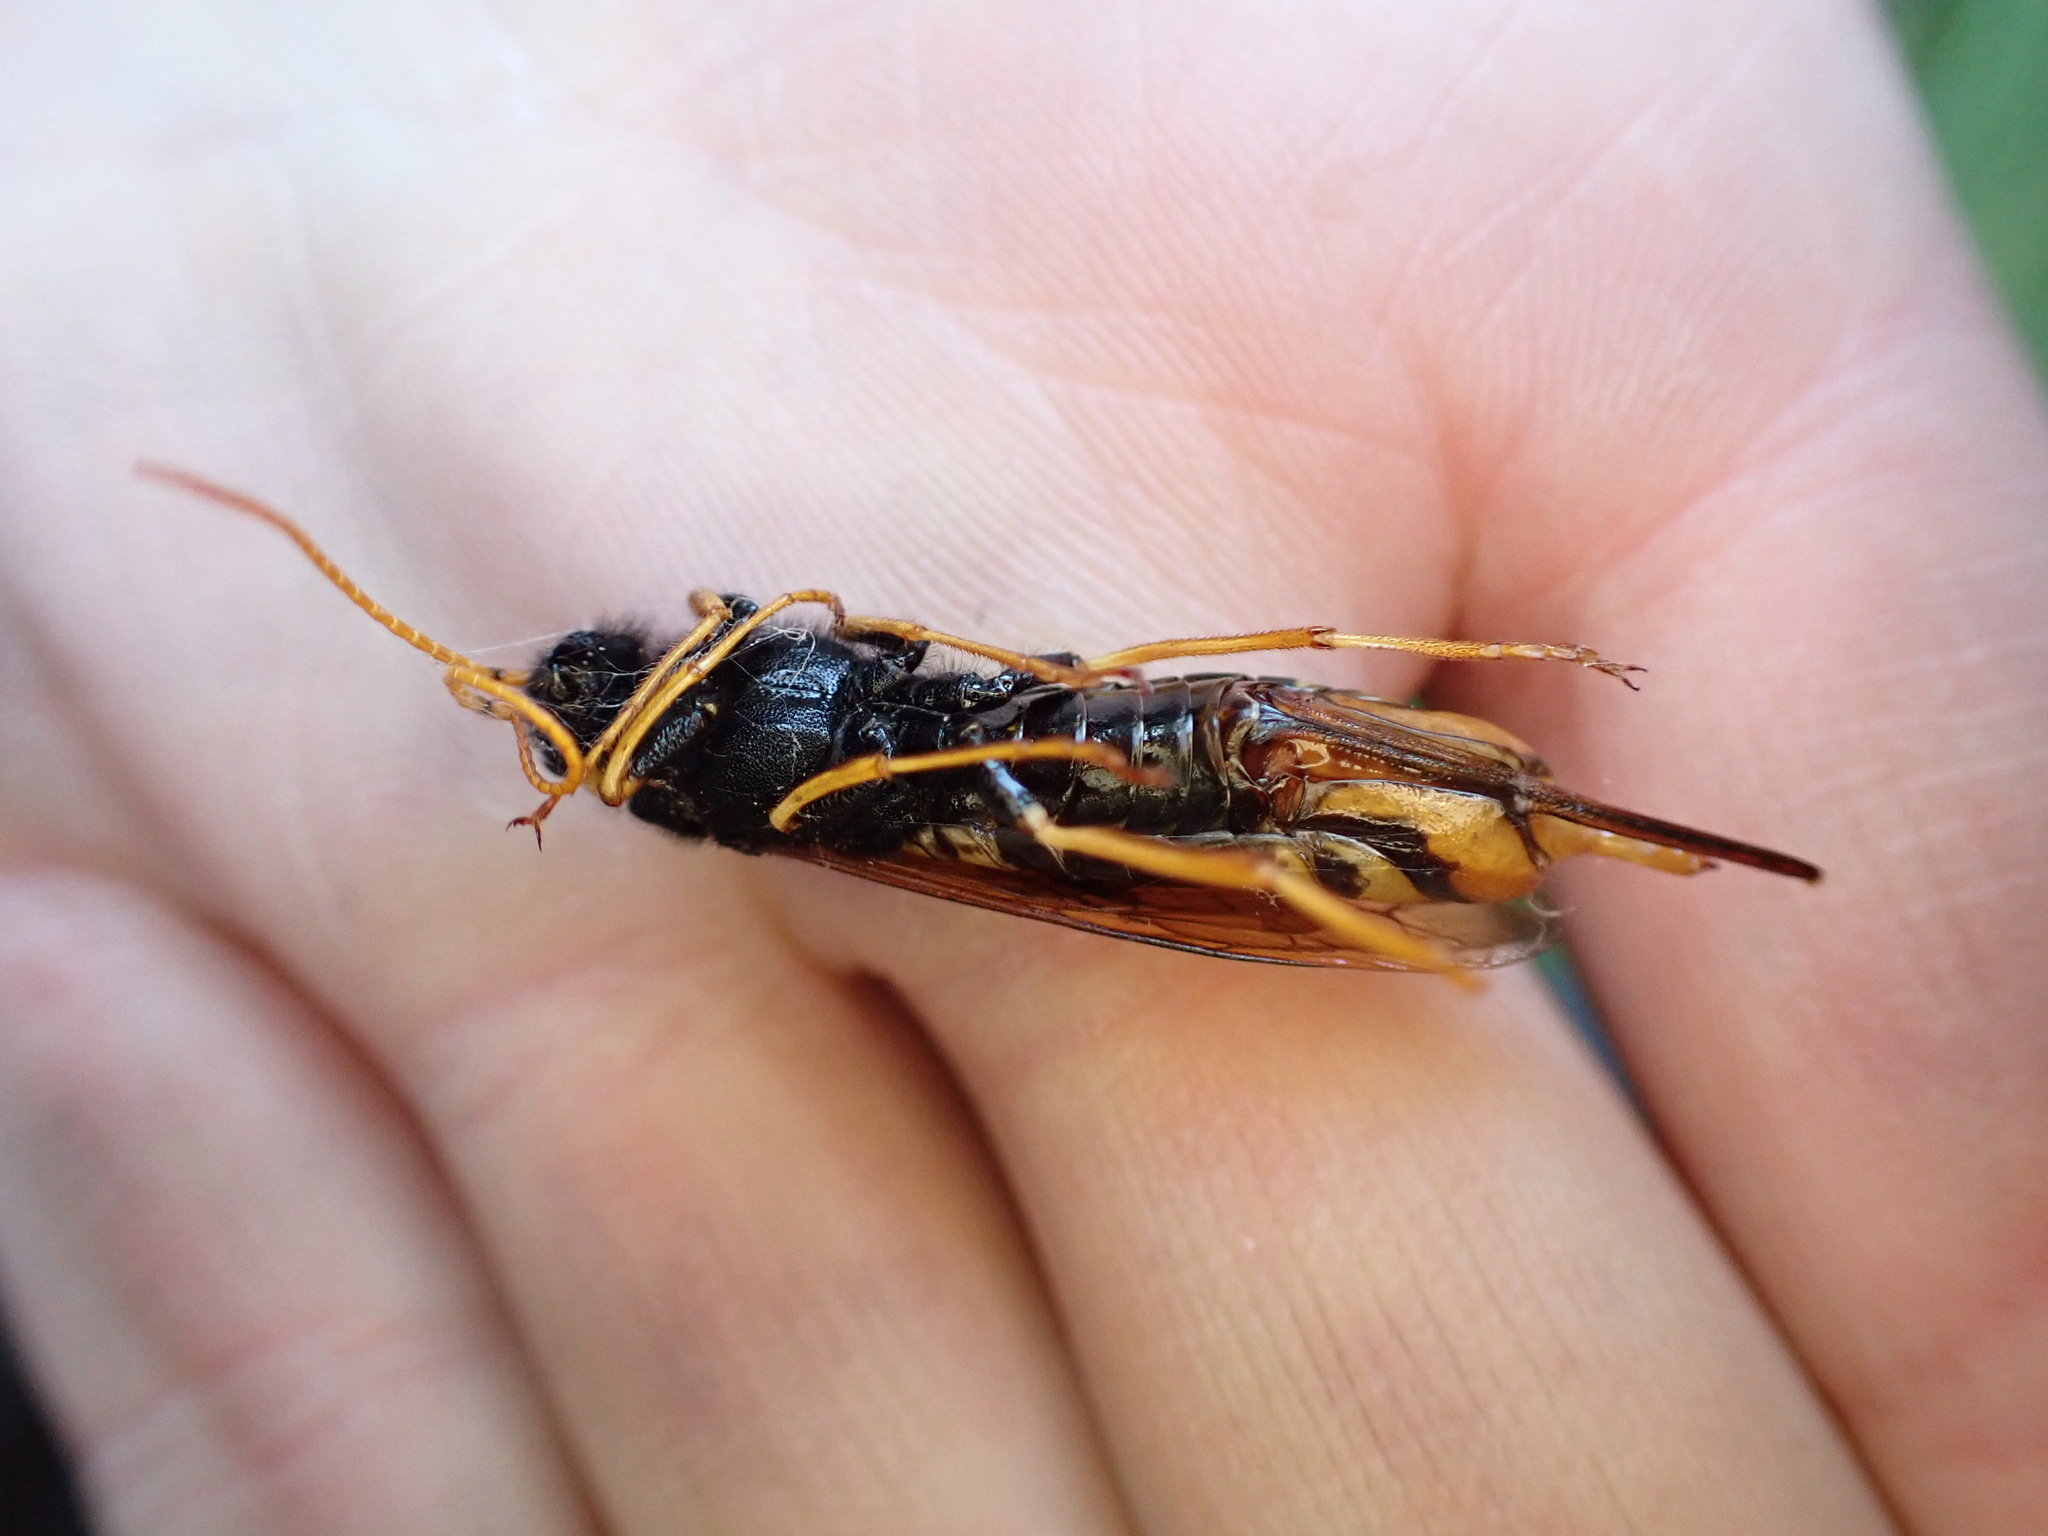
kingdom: Animalia
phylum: Arthropoda
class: Insecta
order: Hymenoptera
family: Siricidae
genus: Urocerus
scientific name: Urocerus gigas
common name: Giant woodwasp
